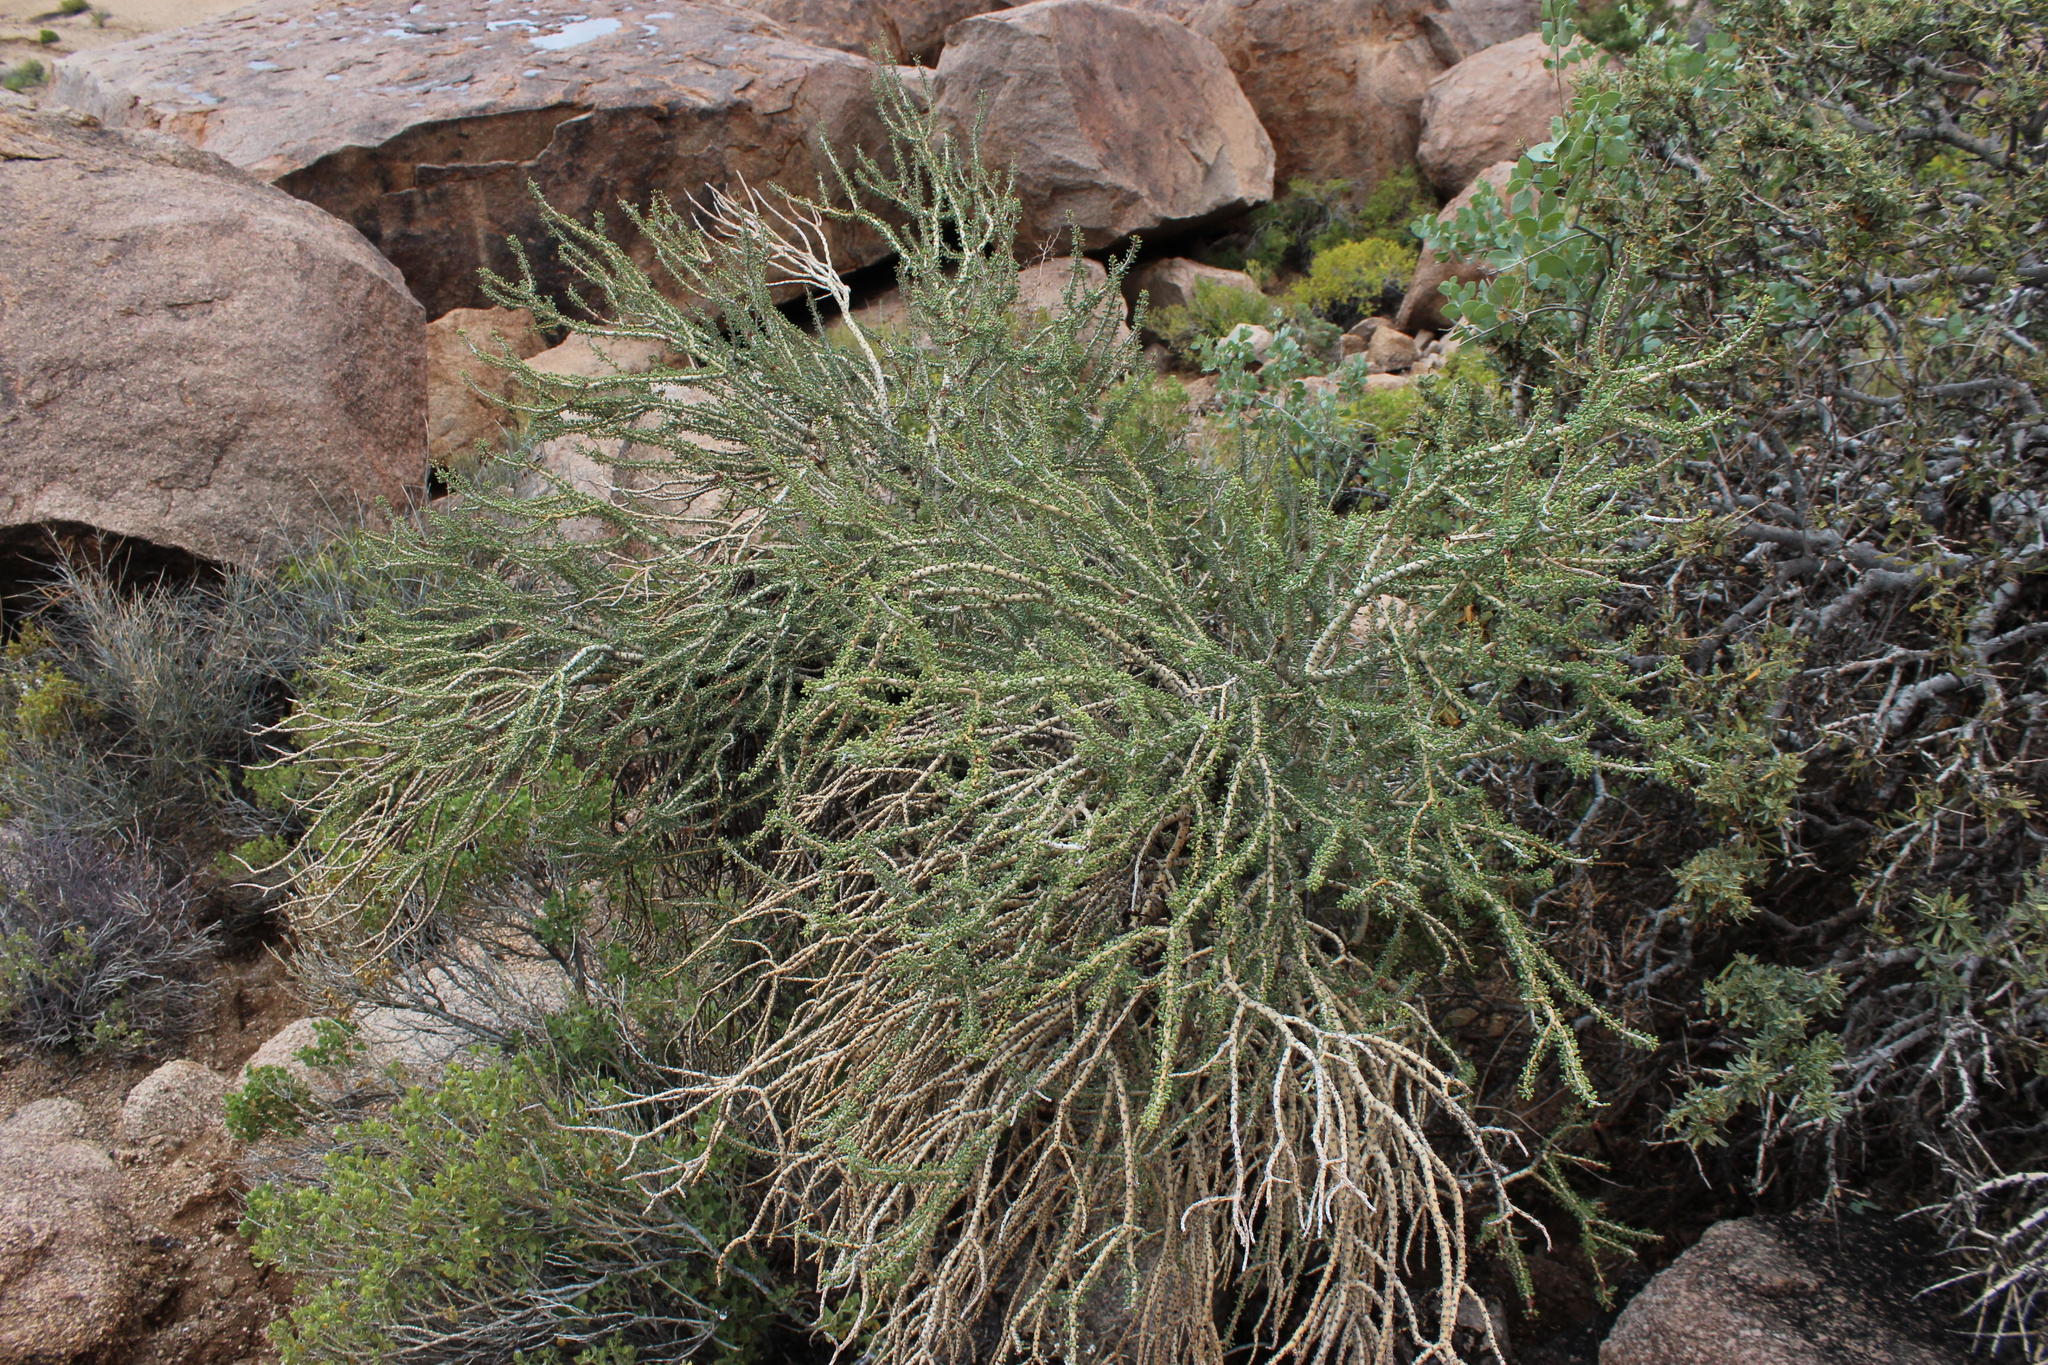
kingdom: Plantae
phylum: Tracheophyta
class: Magnoliopsida
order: Caryophyllales
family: Didiereaceae
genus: Portulacaria
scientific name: Portulacaria namaquensis
